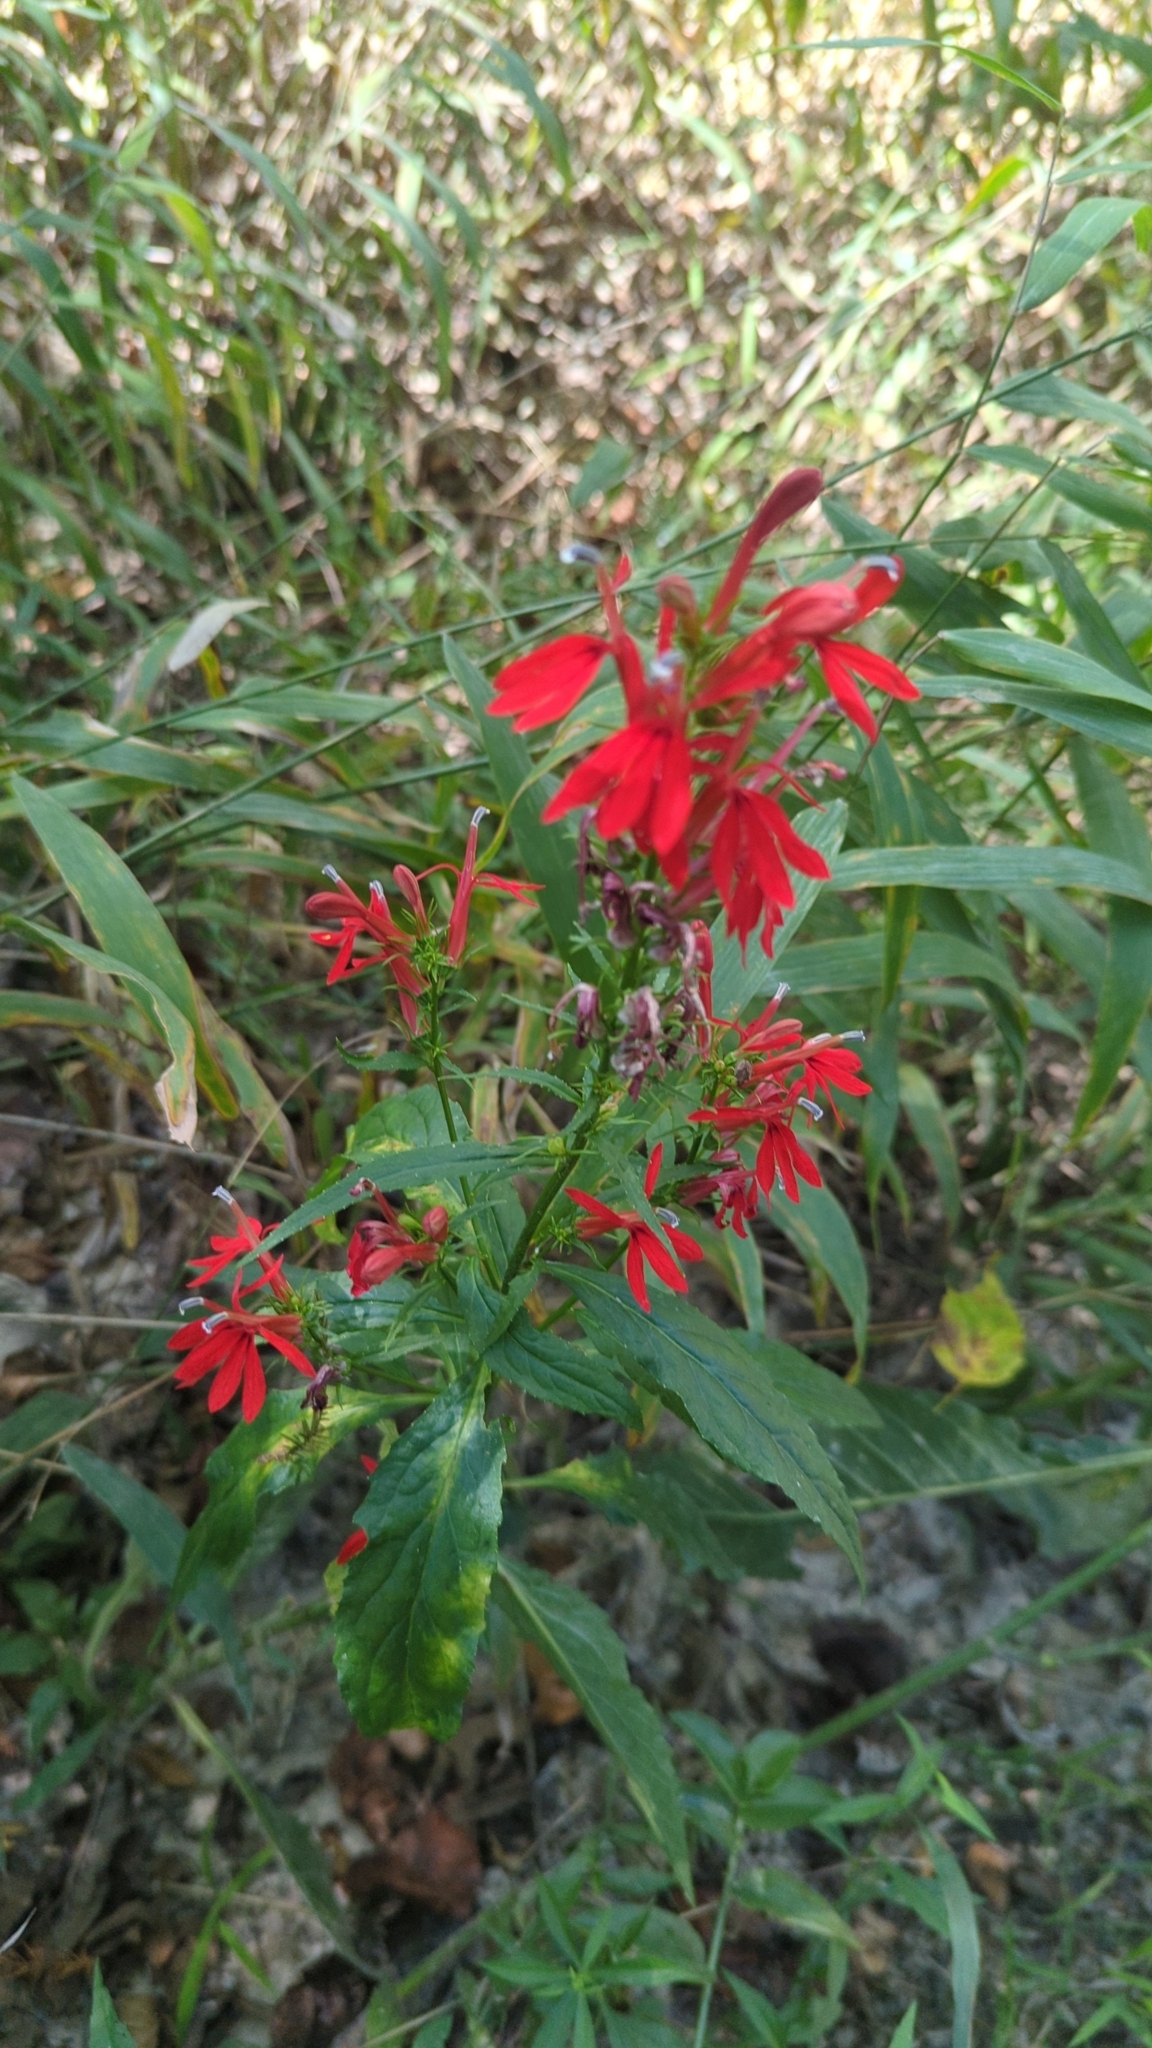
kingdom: Plantae
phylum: Tracheophyta
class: Magnoliopsida
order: Asterales
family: Campanulaceae
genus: Lobelia
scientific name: Lobelia cardinalis
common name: Cardinal flower
